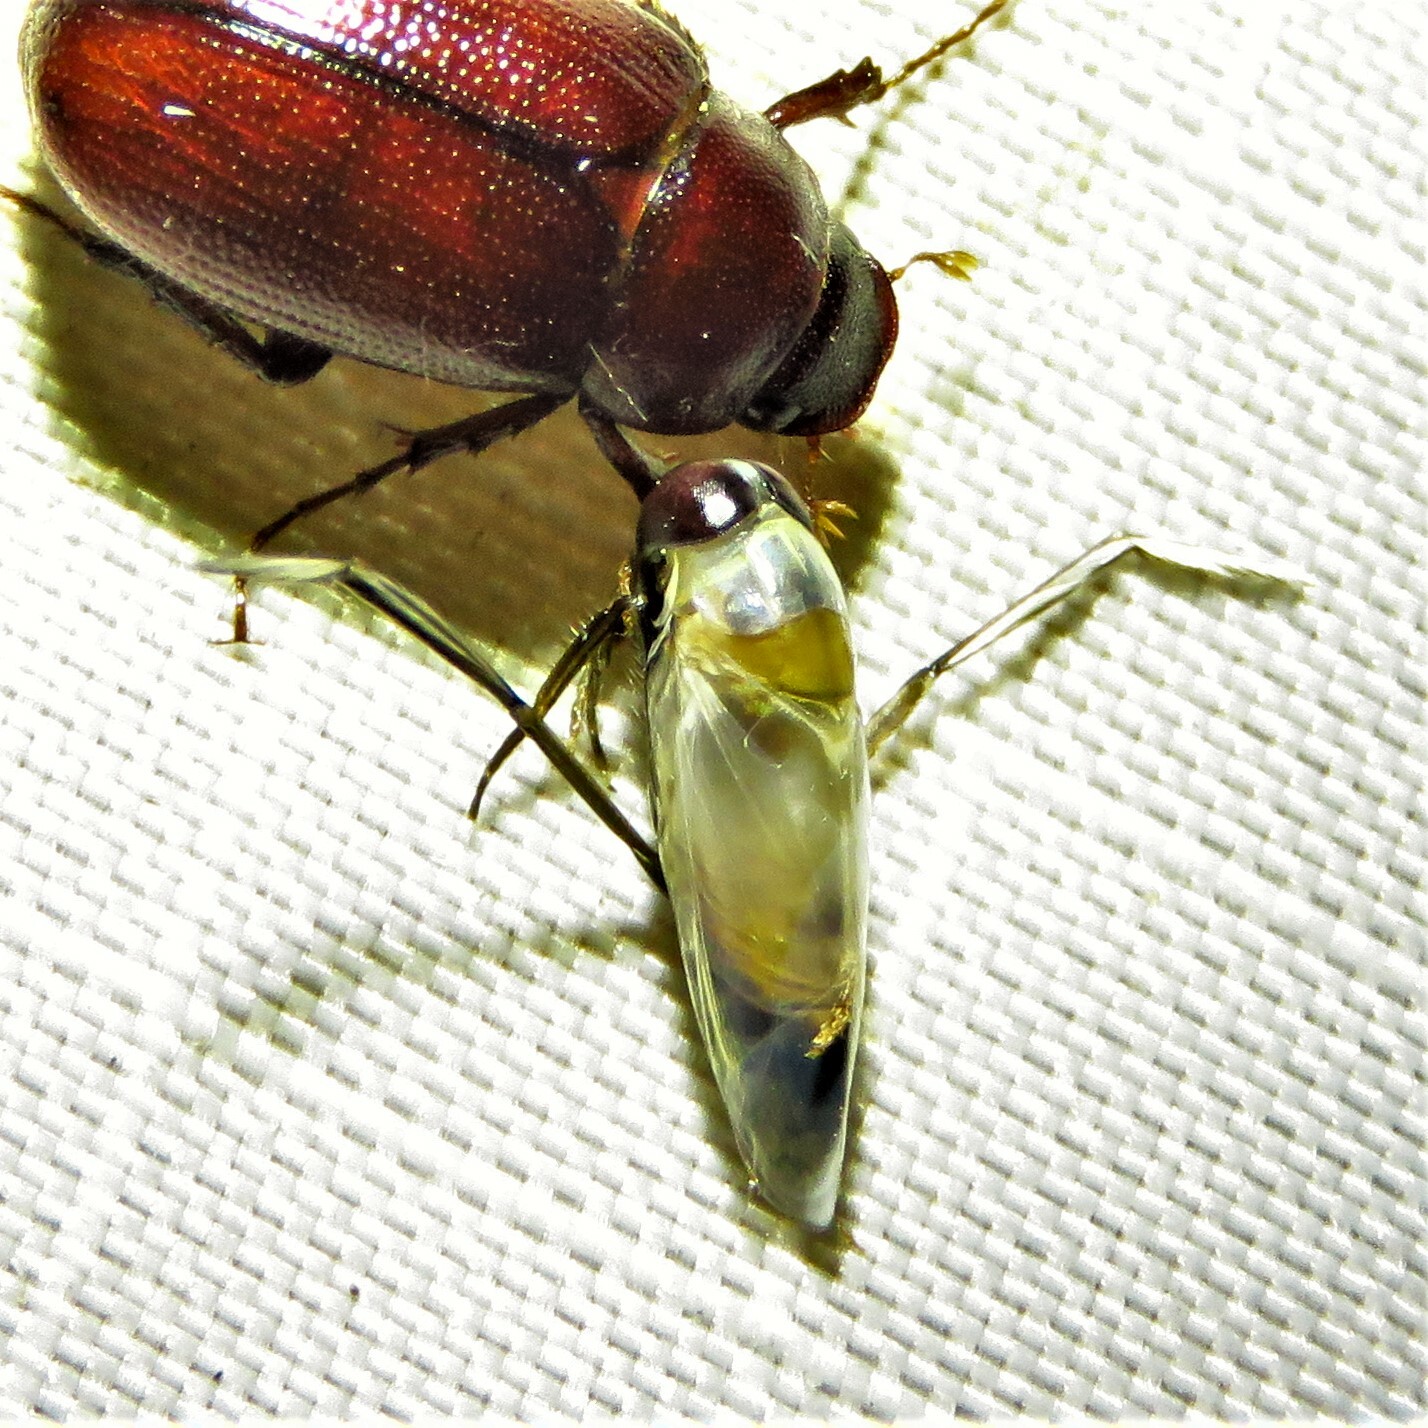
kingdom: Animalia
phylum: Arthropoda
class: Insecta
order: Hemiptera
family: Notonectidae
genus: Buenoa
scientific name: Buenoa
